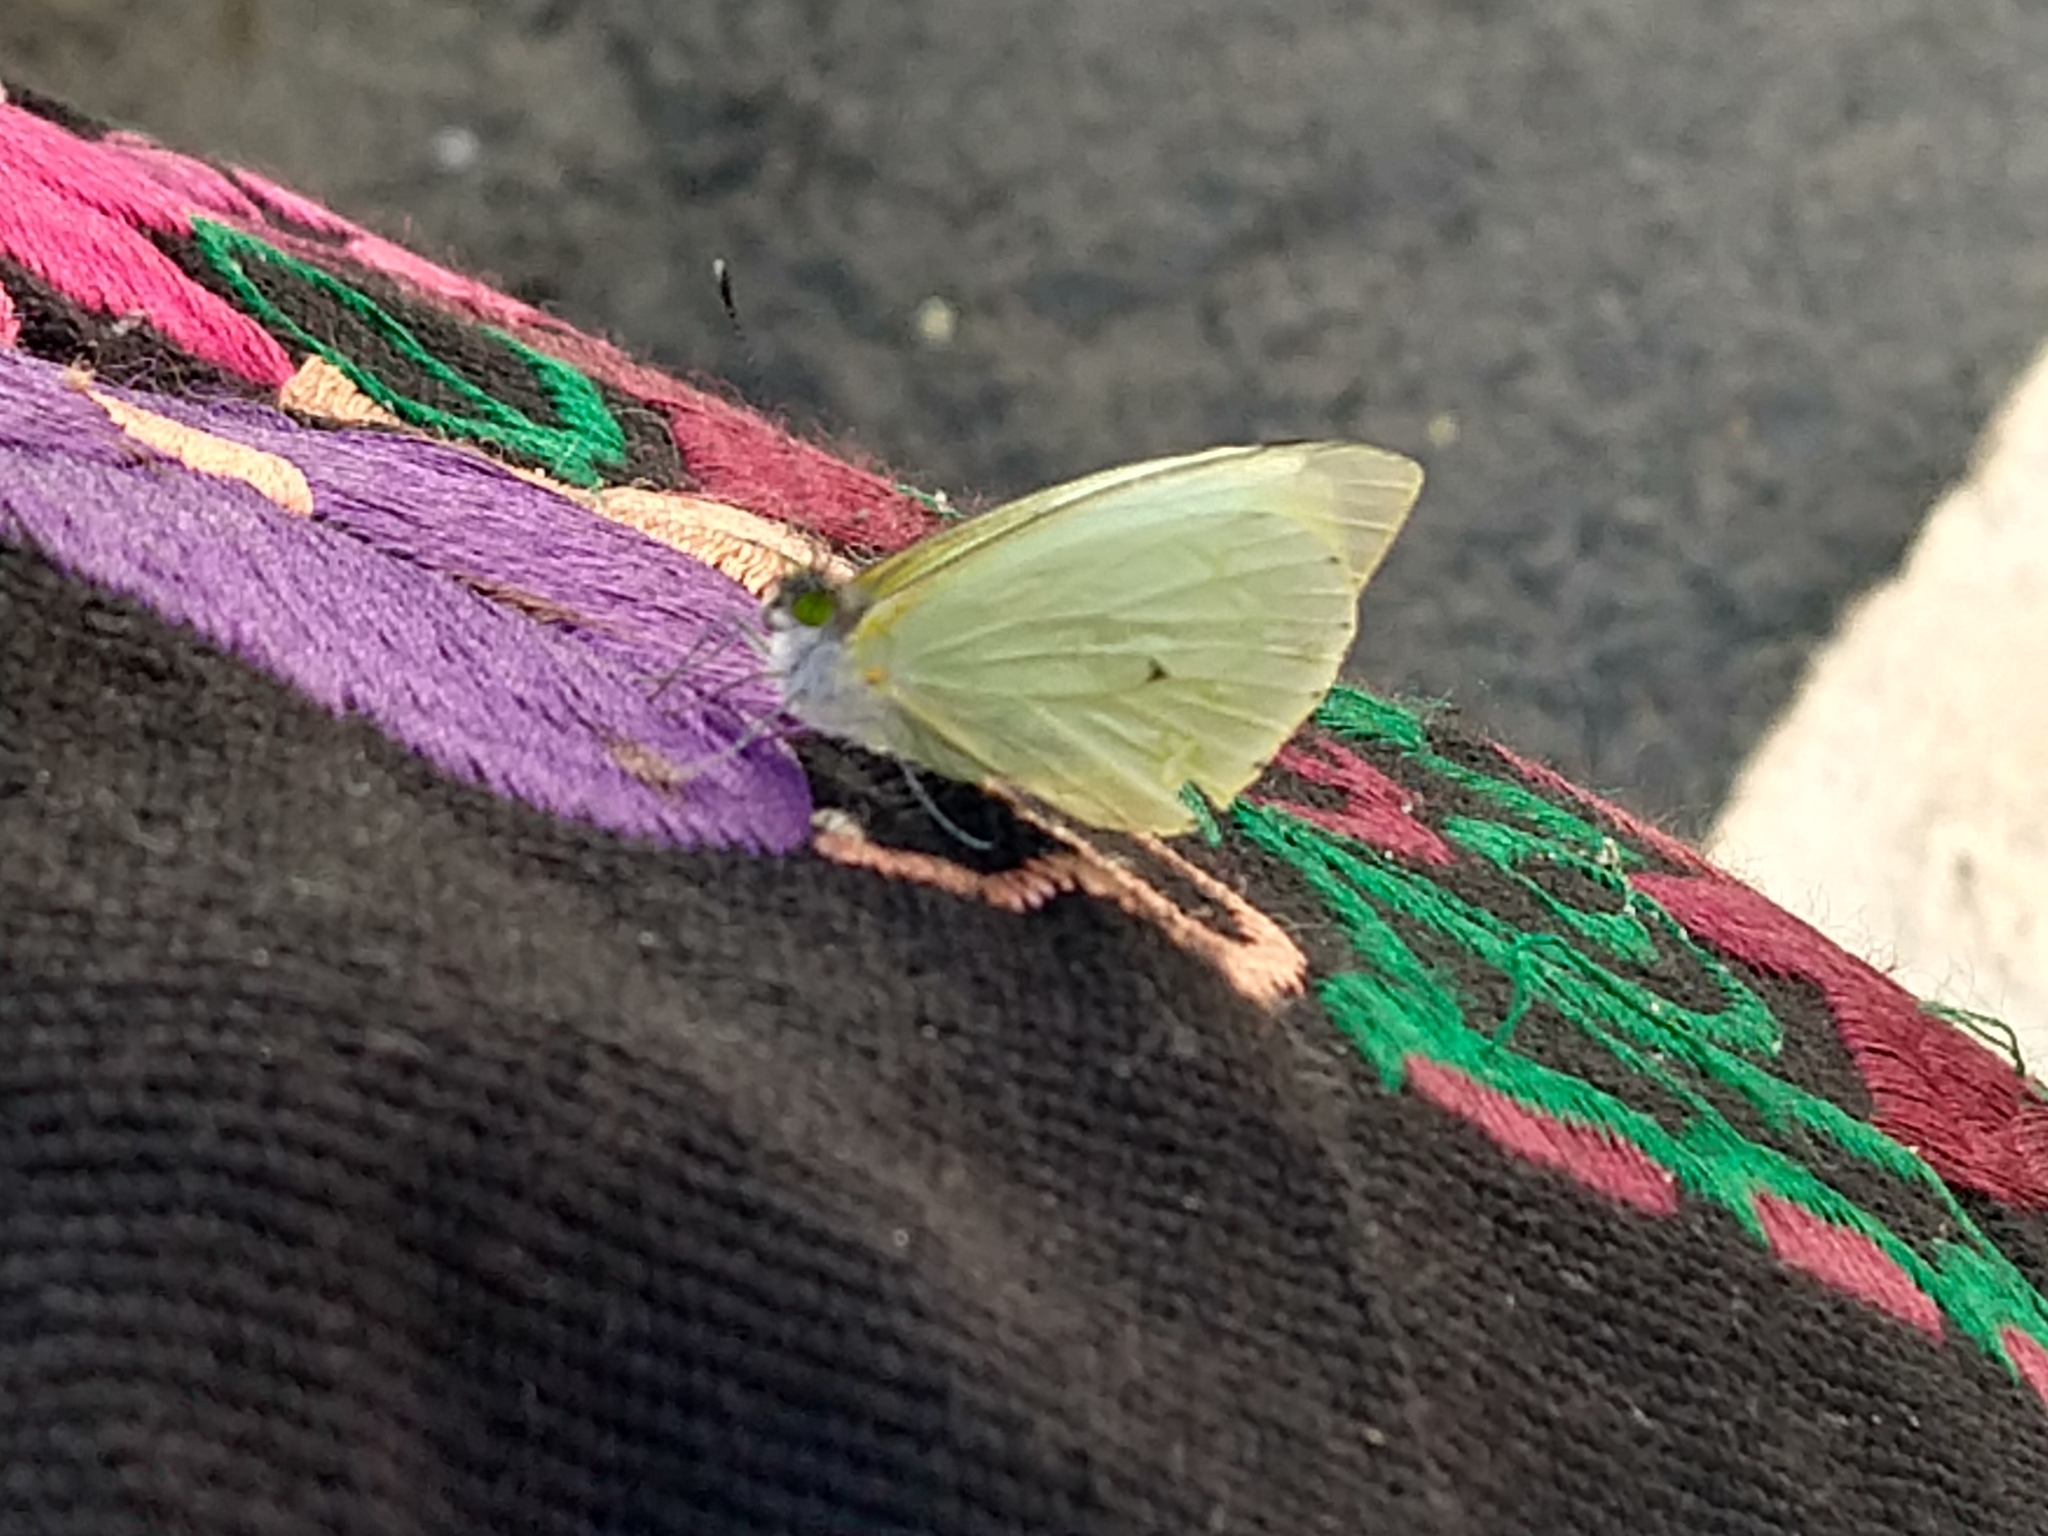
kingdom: Animalia
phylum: Arthropoda
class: Insecta
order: Lepidoptera
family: Pieridae
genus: Leptophobia
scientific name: Leptophobia aripa
